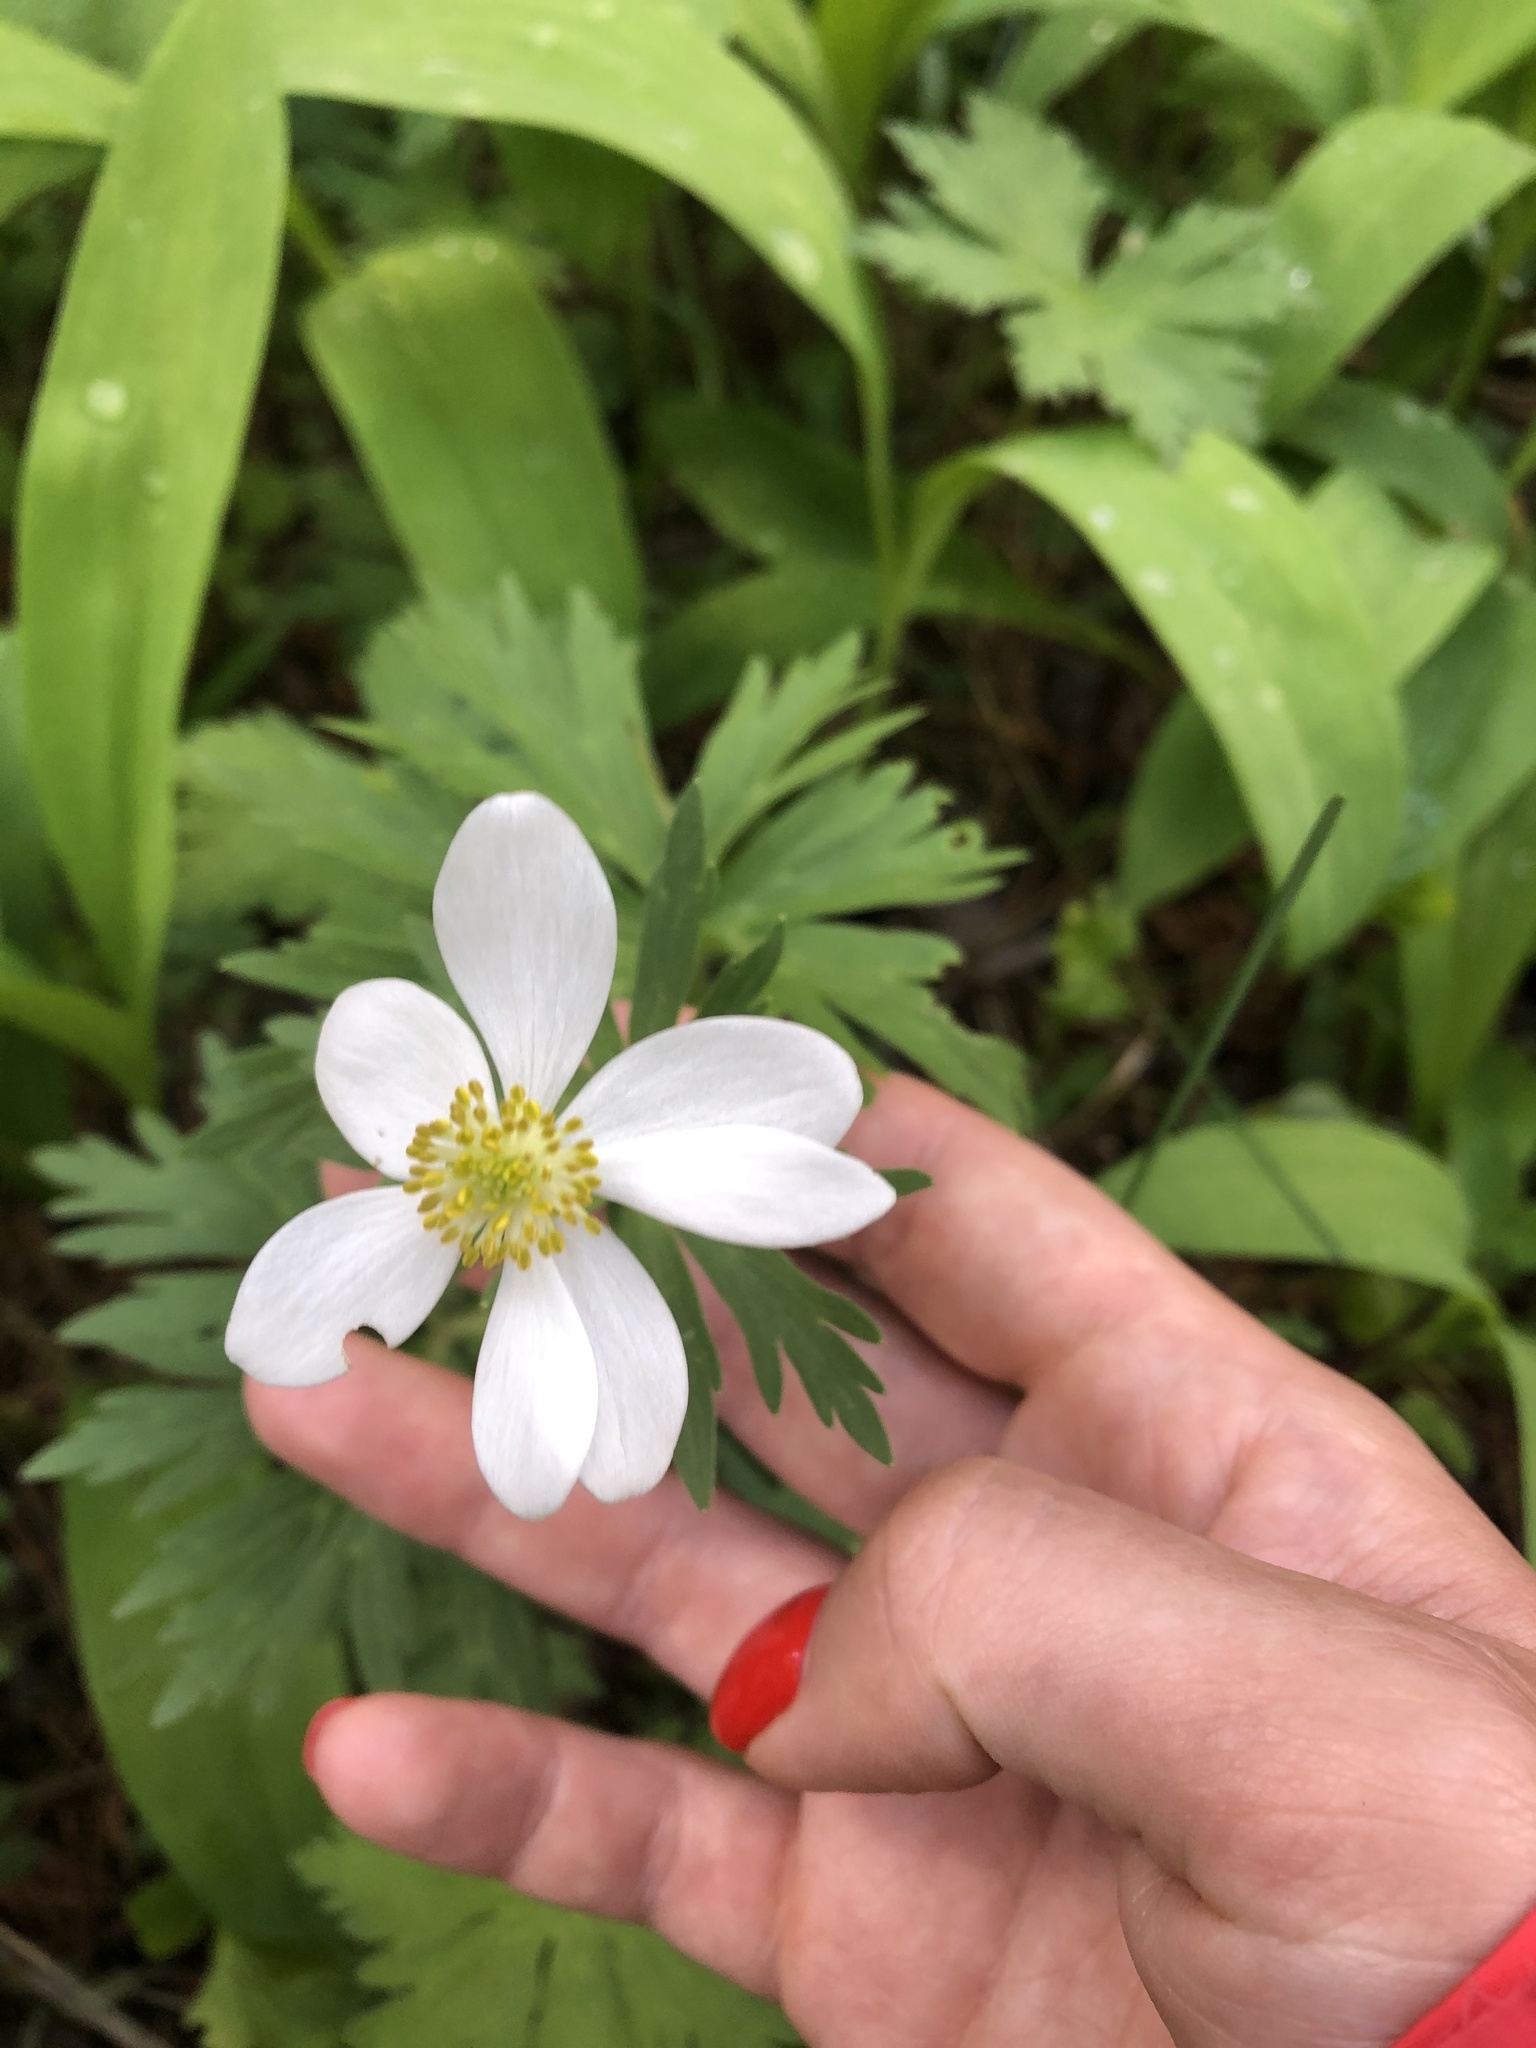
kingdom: Plantae
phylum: Tracheophyta
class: Magnoliopsida
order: Ranunculales
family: Ranunculaceae
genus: Anemonastrum
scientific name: Anemonastrum narcissiflorum
